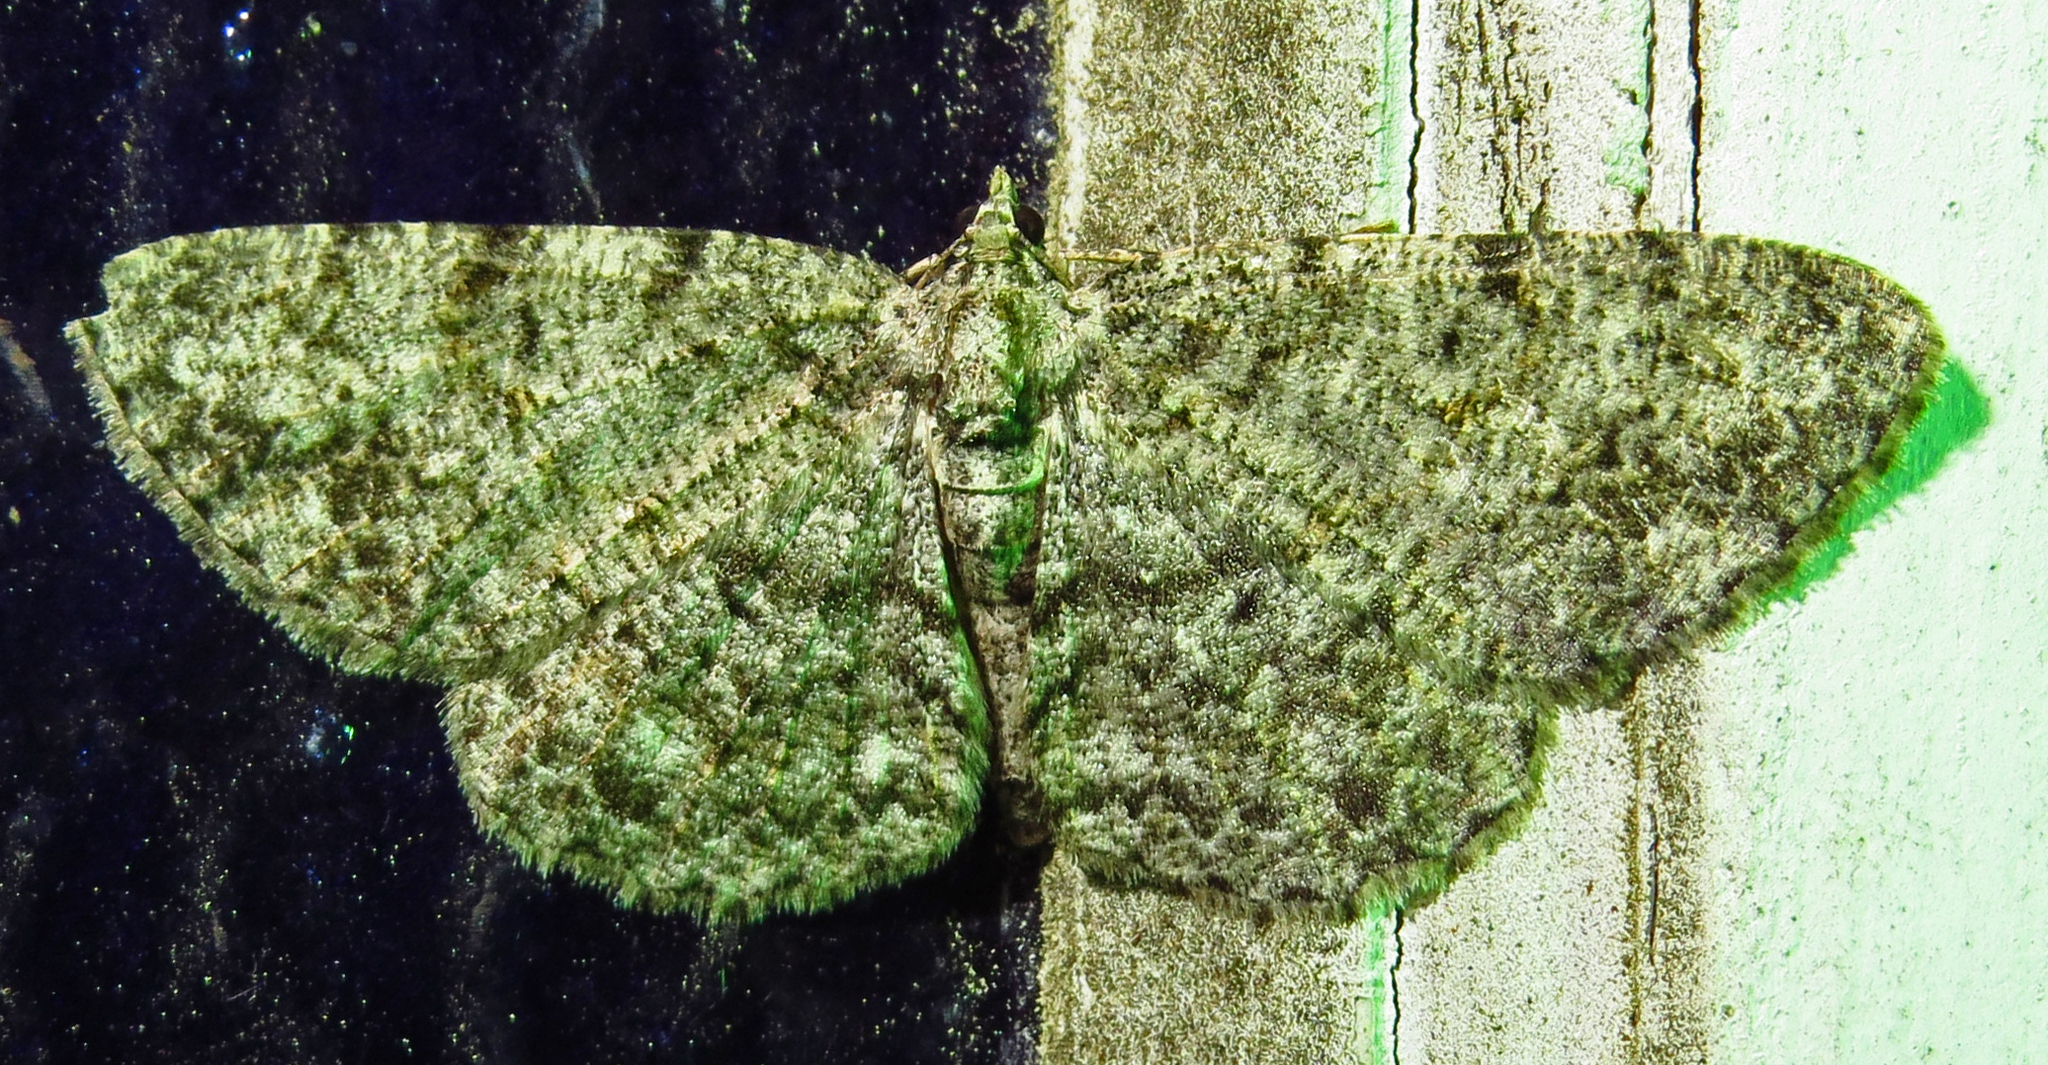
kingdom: Animalia
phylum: Arthropoda
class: Insecta
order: Lepidoptera
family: Geometridae
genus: Protoboarmia
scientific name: Protoboarmia porcelaria
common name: Porcelain gray
